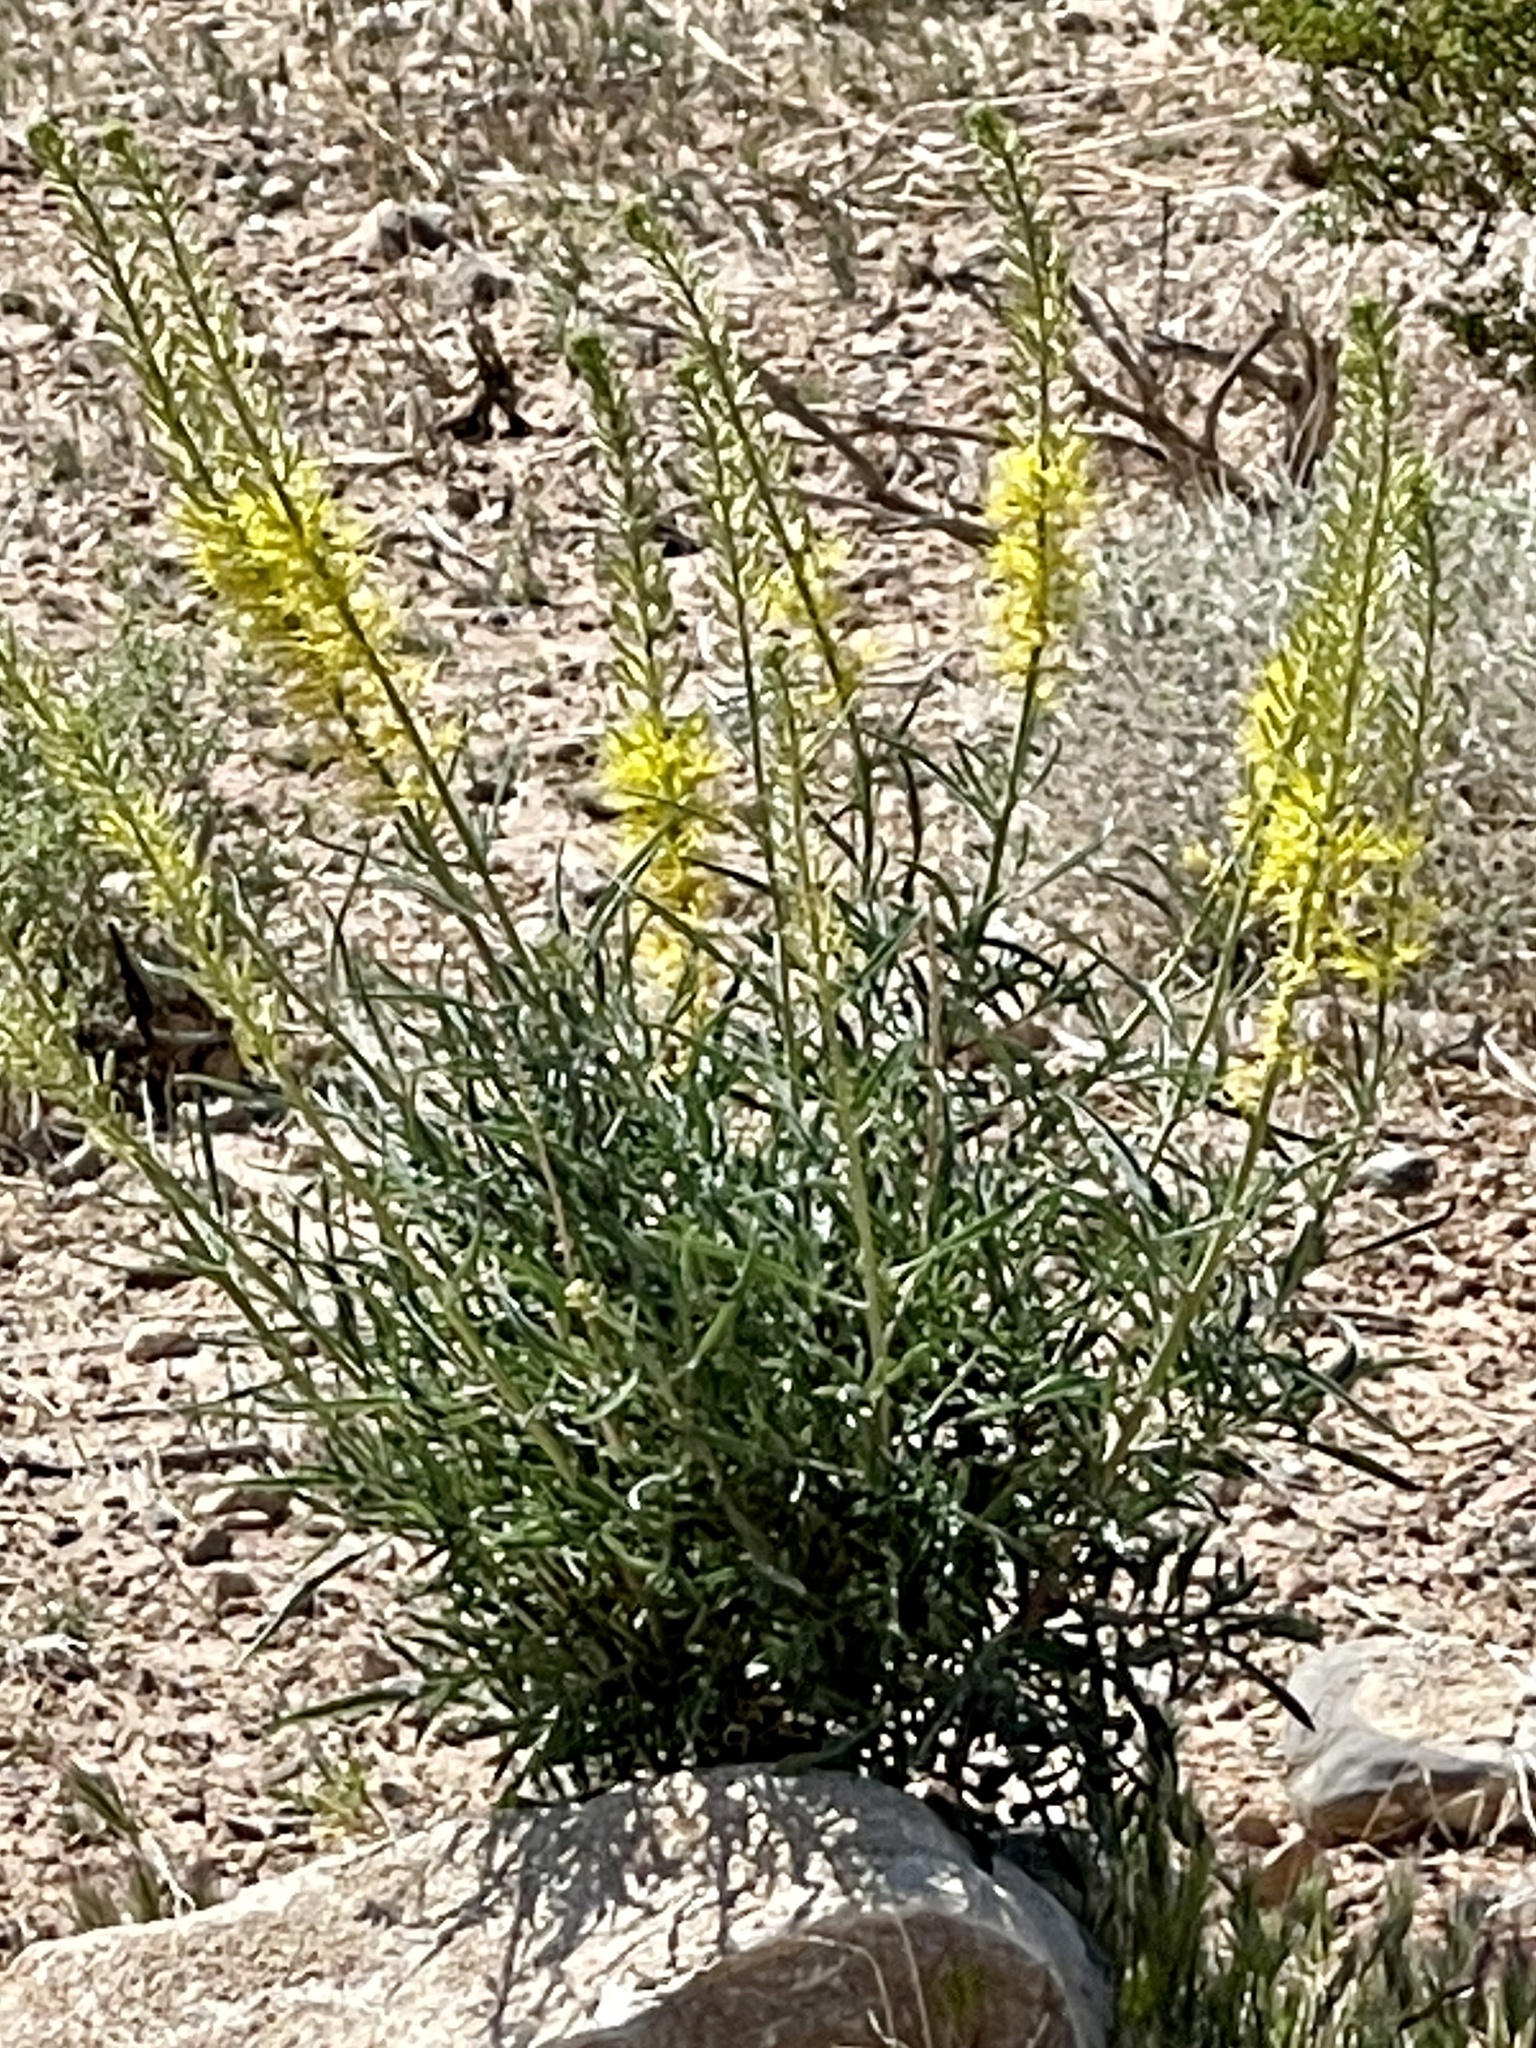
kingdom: Plantae
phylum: Tracheophyta
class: Magnoliopsida
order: Brassicales
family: Brassicaceae
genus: Stanleya
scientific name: Stanleya pinnata
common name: Prince's-plume
